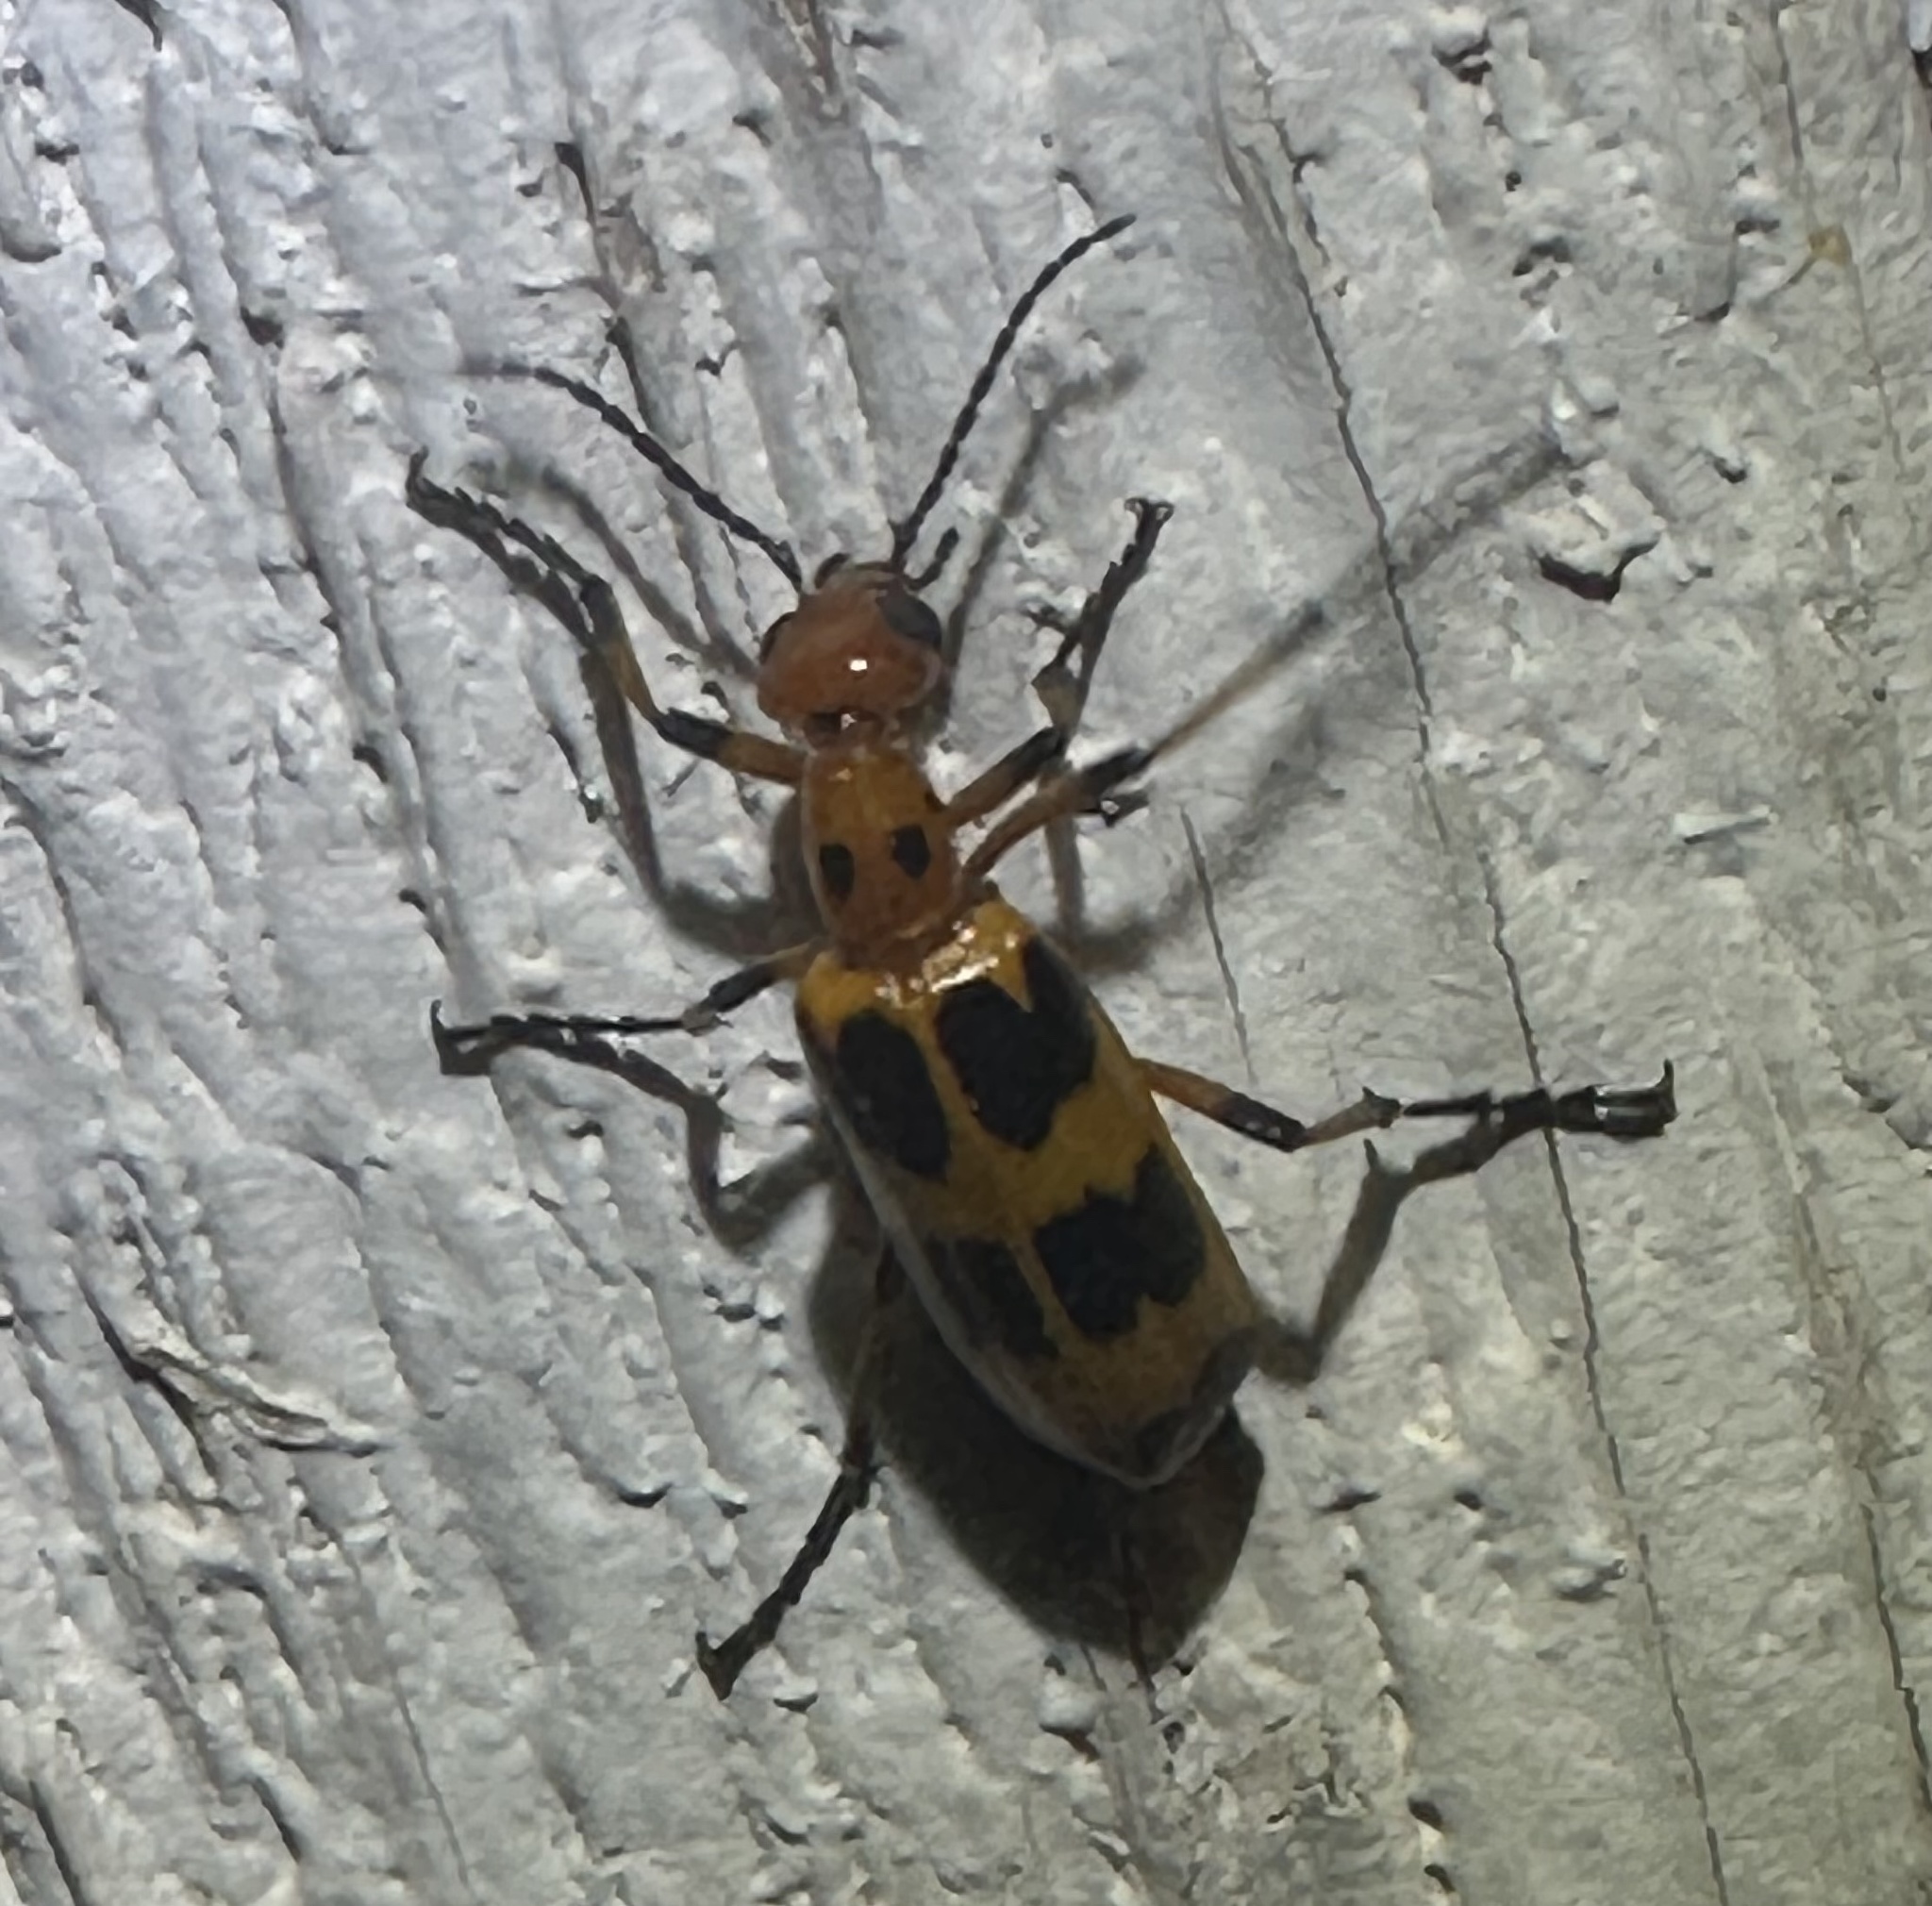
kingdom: Animalia
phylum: Arthropoda
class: Insecta
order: Coleoptera
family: Meloidae
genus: Pyrota
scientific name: Pyrota palpalis
